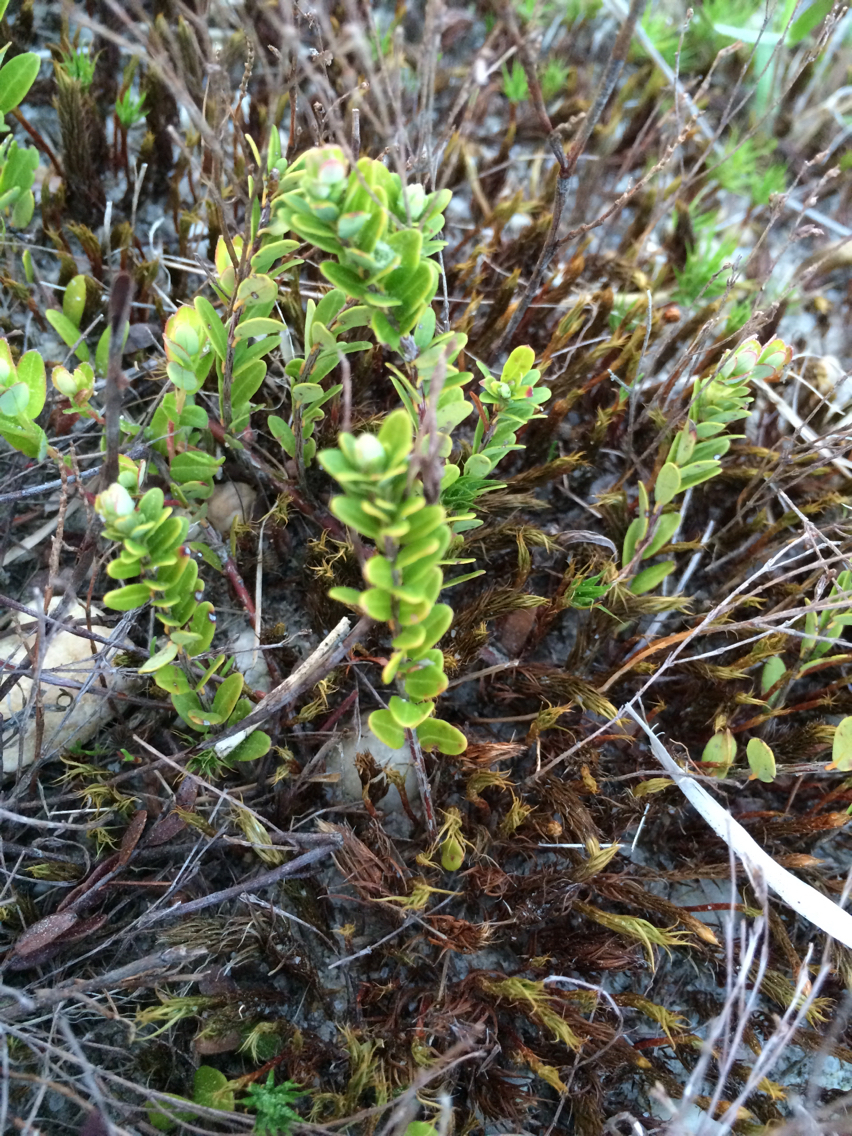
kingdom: Plantae
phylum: Tracheophyta
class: Magnoliopsida
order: Ericales
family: Ericaceae
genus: Vaccinium
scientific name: Vaccinium macrocarpon
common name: American cranberry
